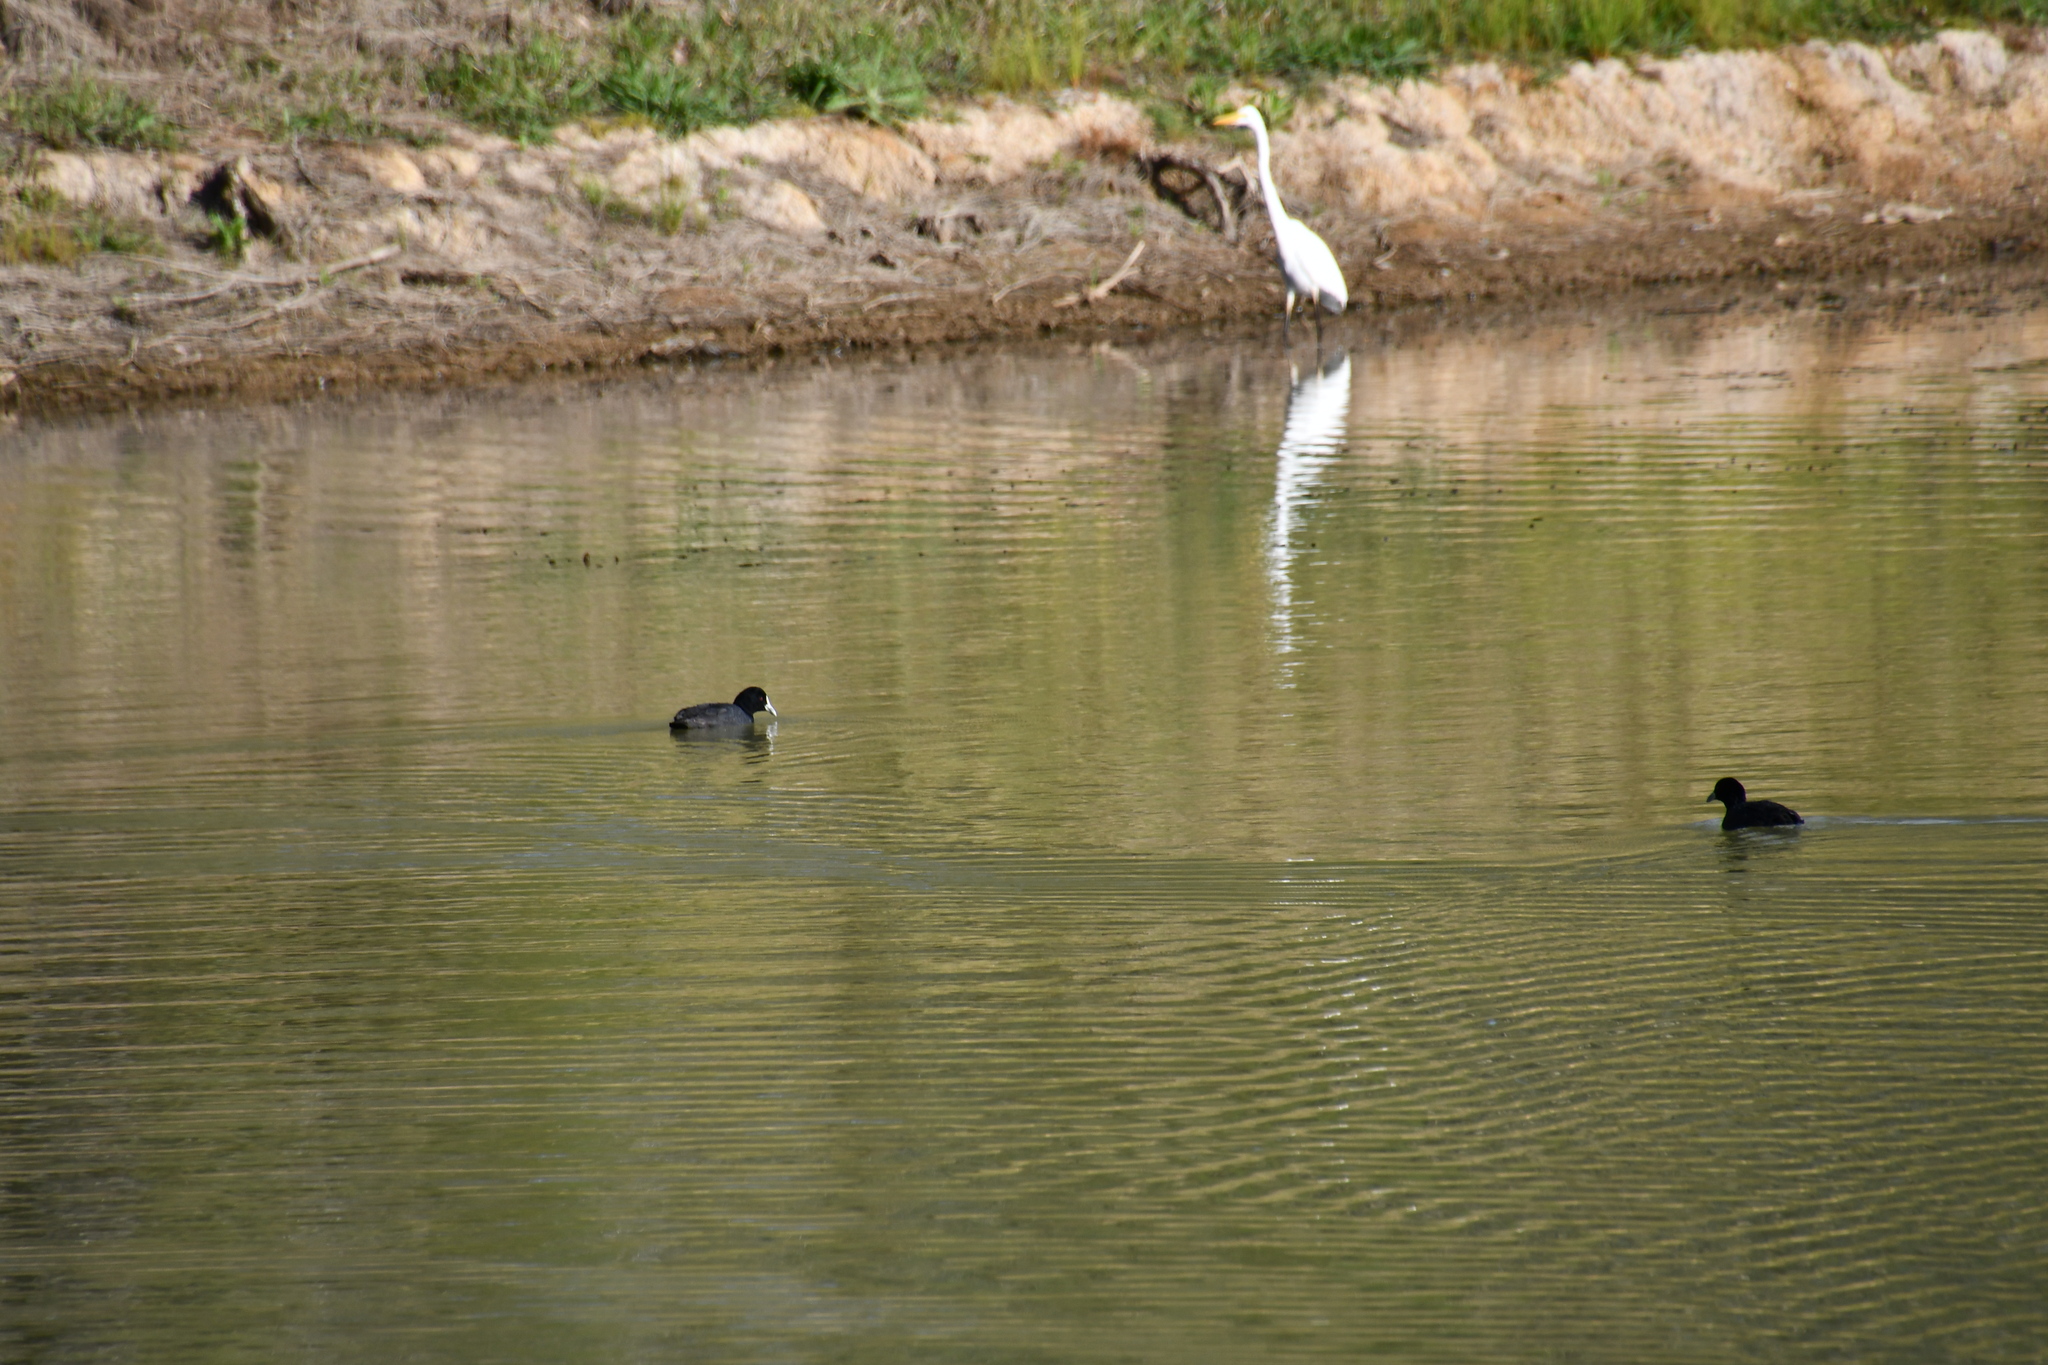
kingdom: Animalia
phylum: Chordata
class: Aves
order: Gruiformes
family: Rallidae
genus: Fulica
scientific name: Fulica atra
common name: Eurasian coot
